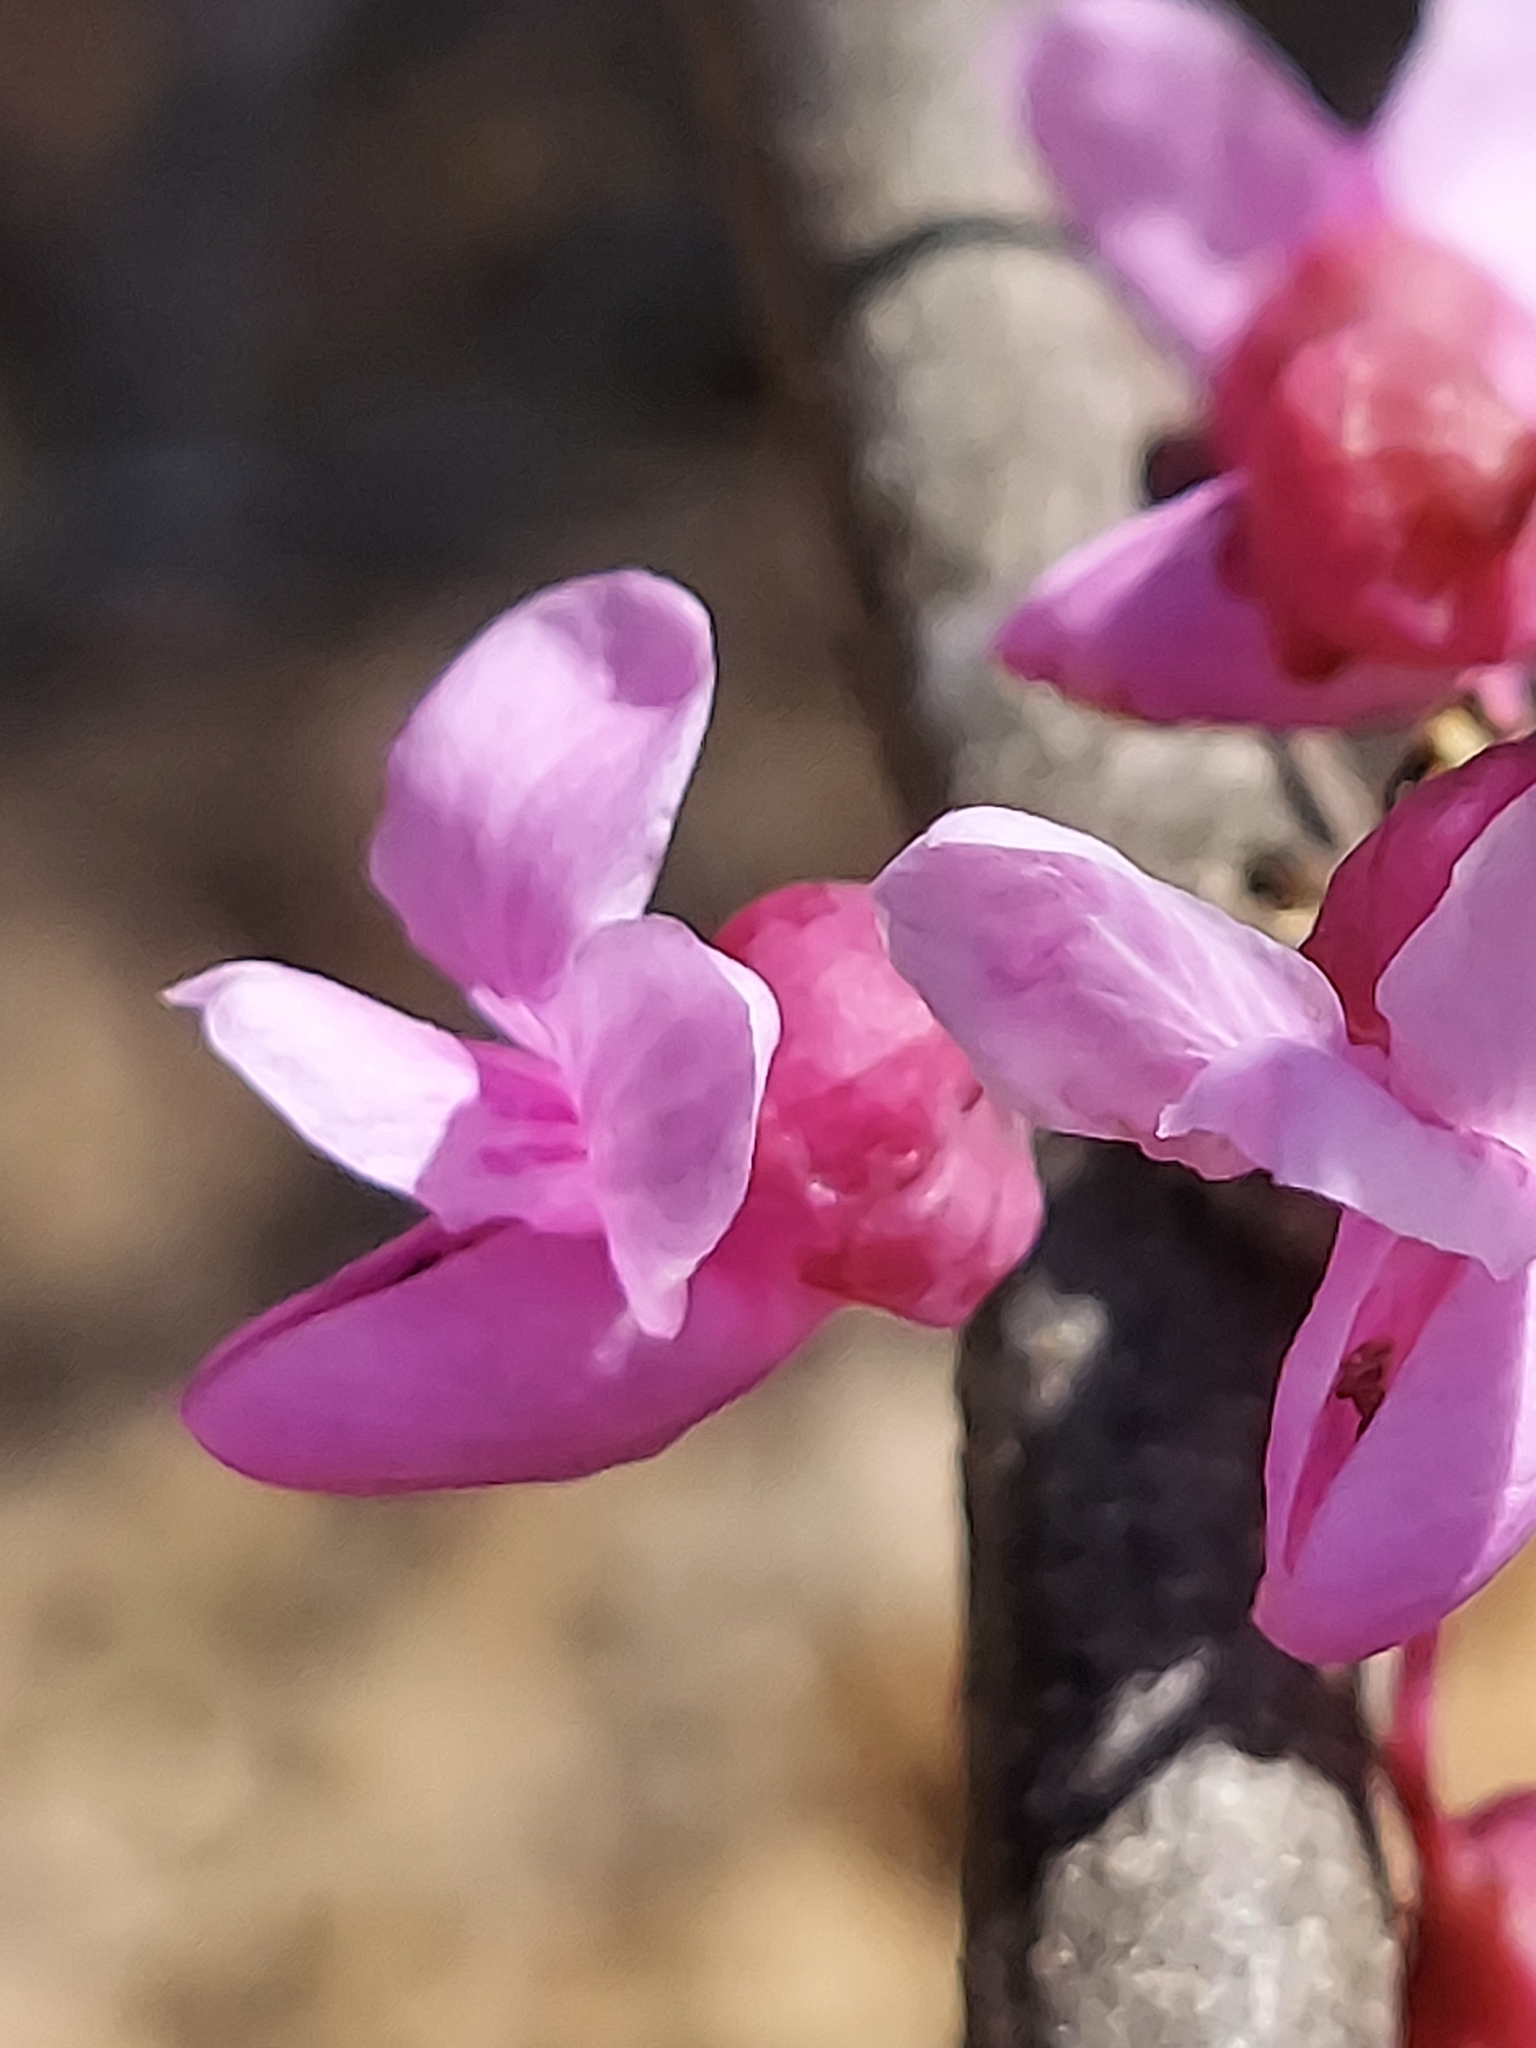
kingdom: Plantae
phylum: Tracheophyta
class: Magnoliopsida
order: Fabales
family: Fabaceae
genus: Cercis
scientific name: Cercis canadensis
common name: Eastern redbud
